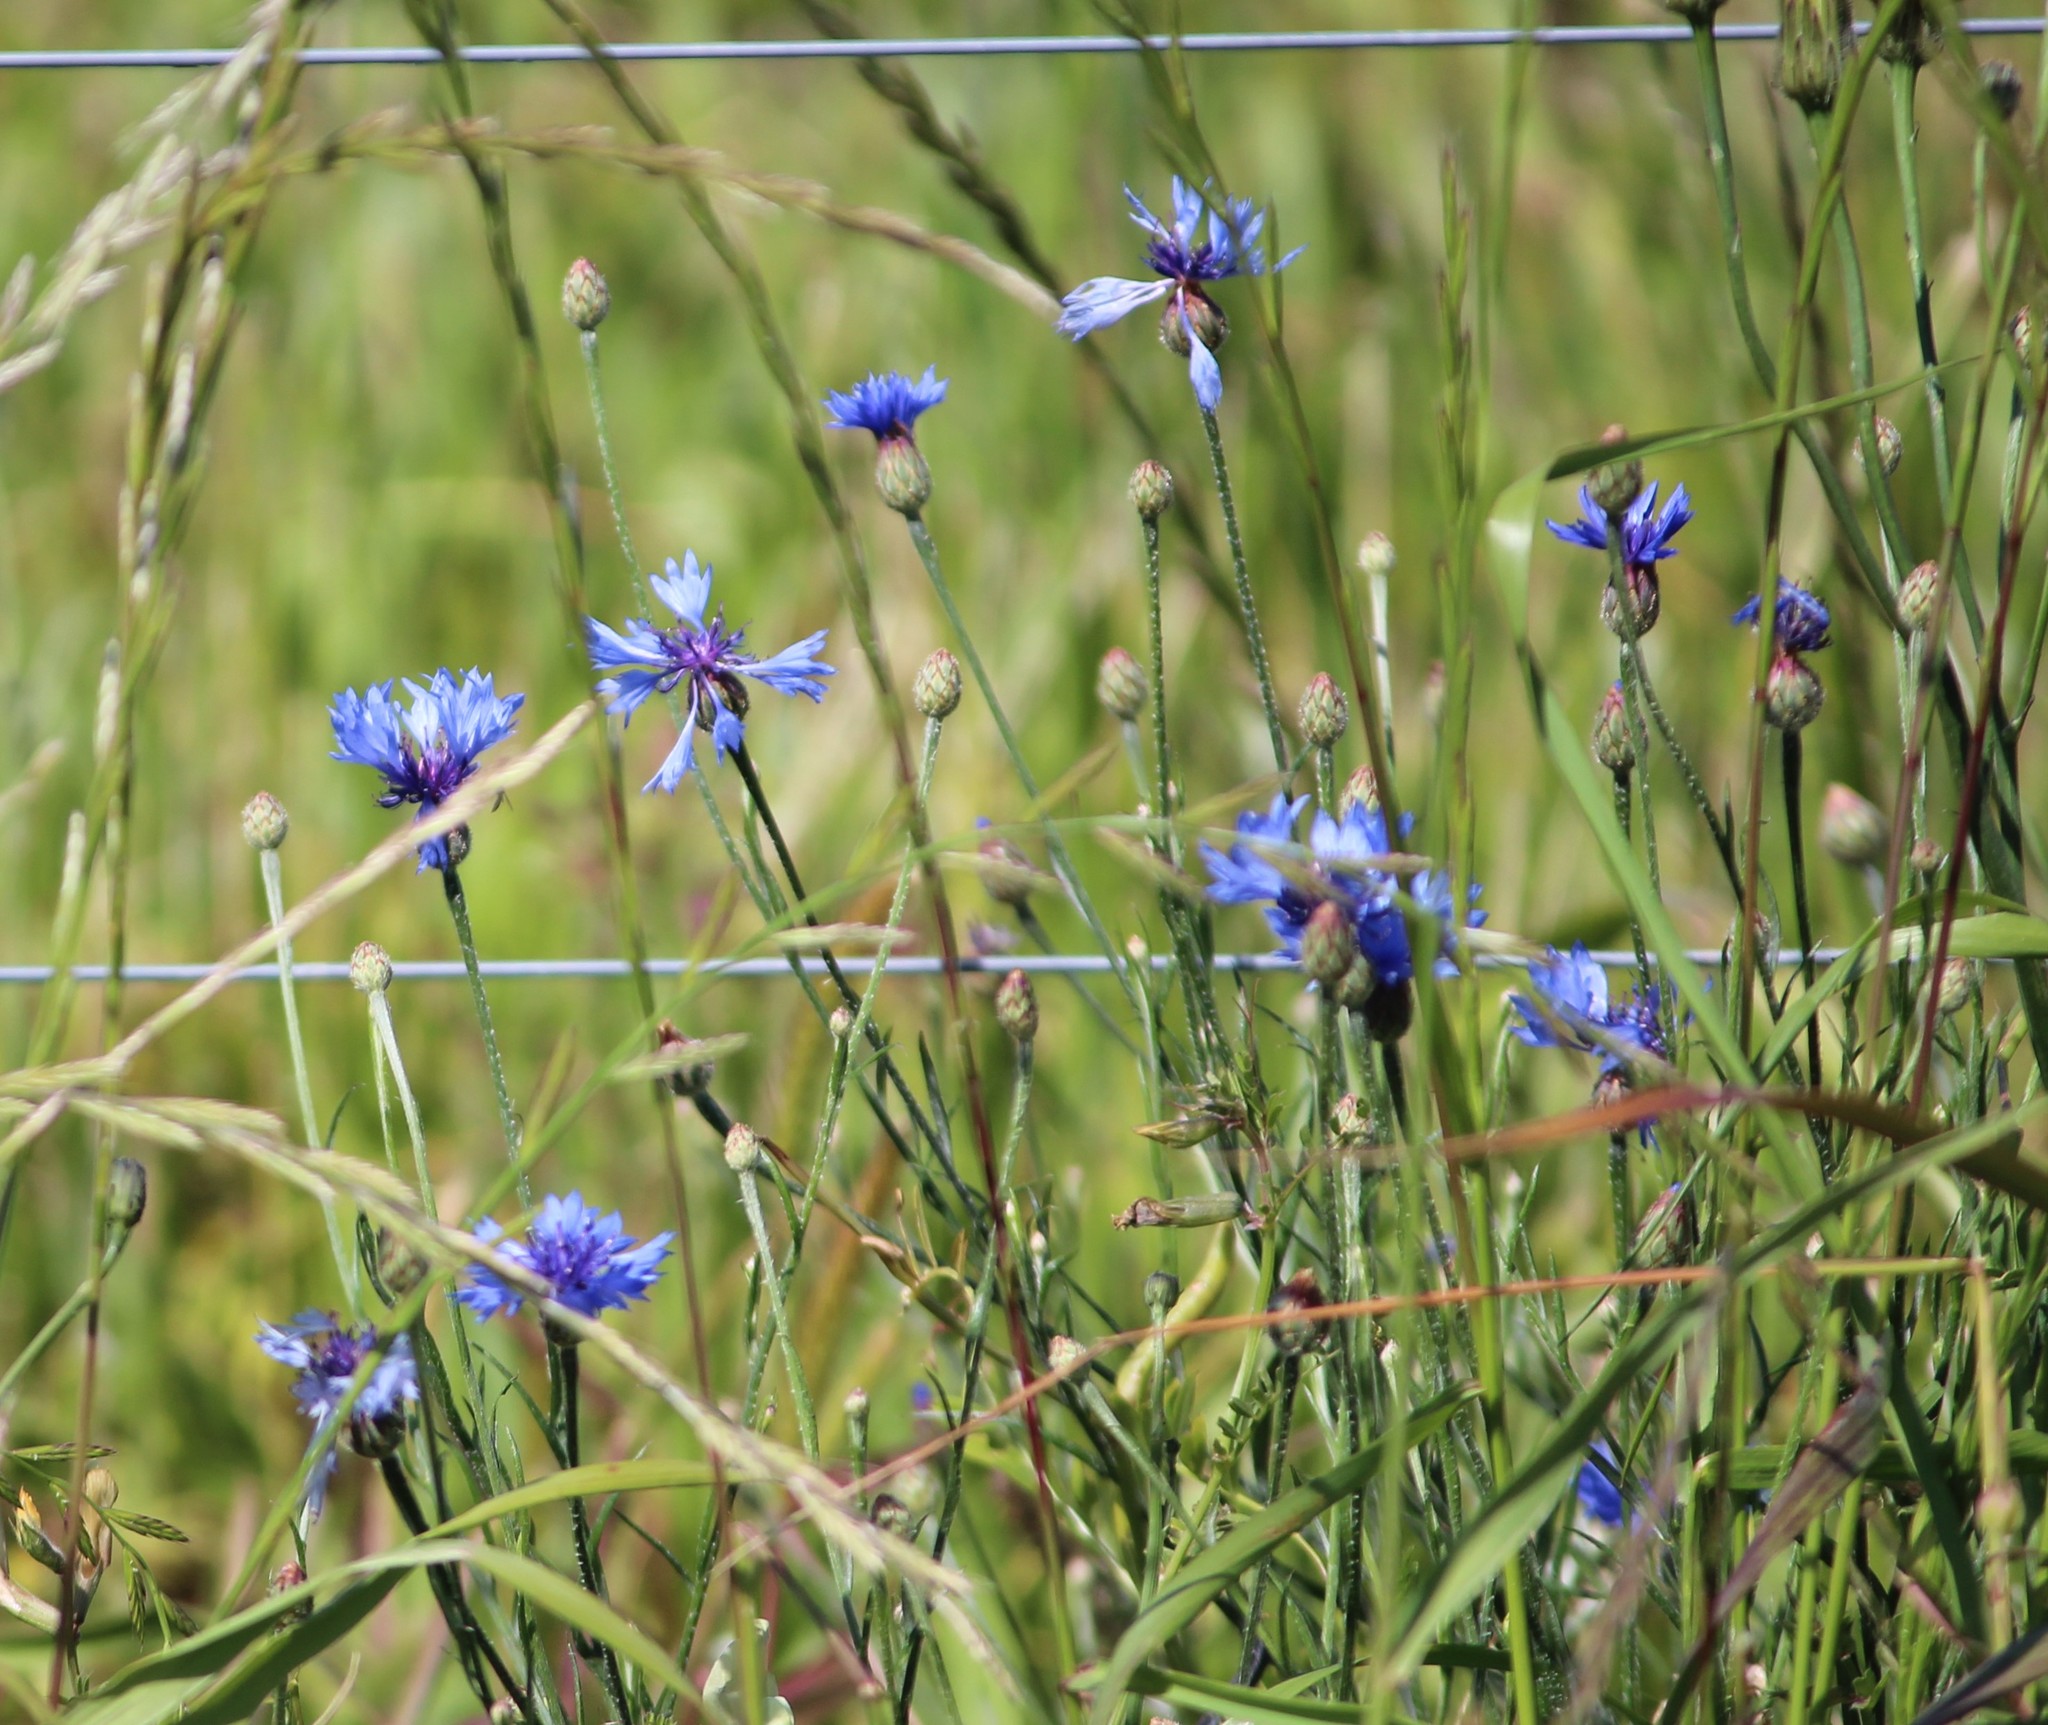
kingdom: Plantae
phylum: Tracheophyta
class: Magnoliopsida
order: Asterales
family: Asteraceae
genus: Centaurea
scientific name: Centaurea cyanus
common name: Cornflower
